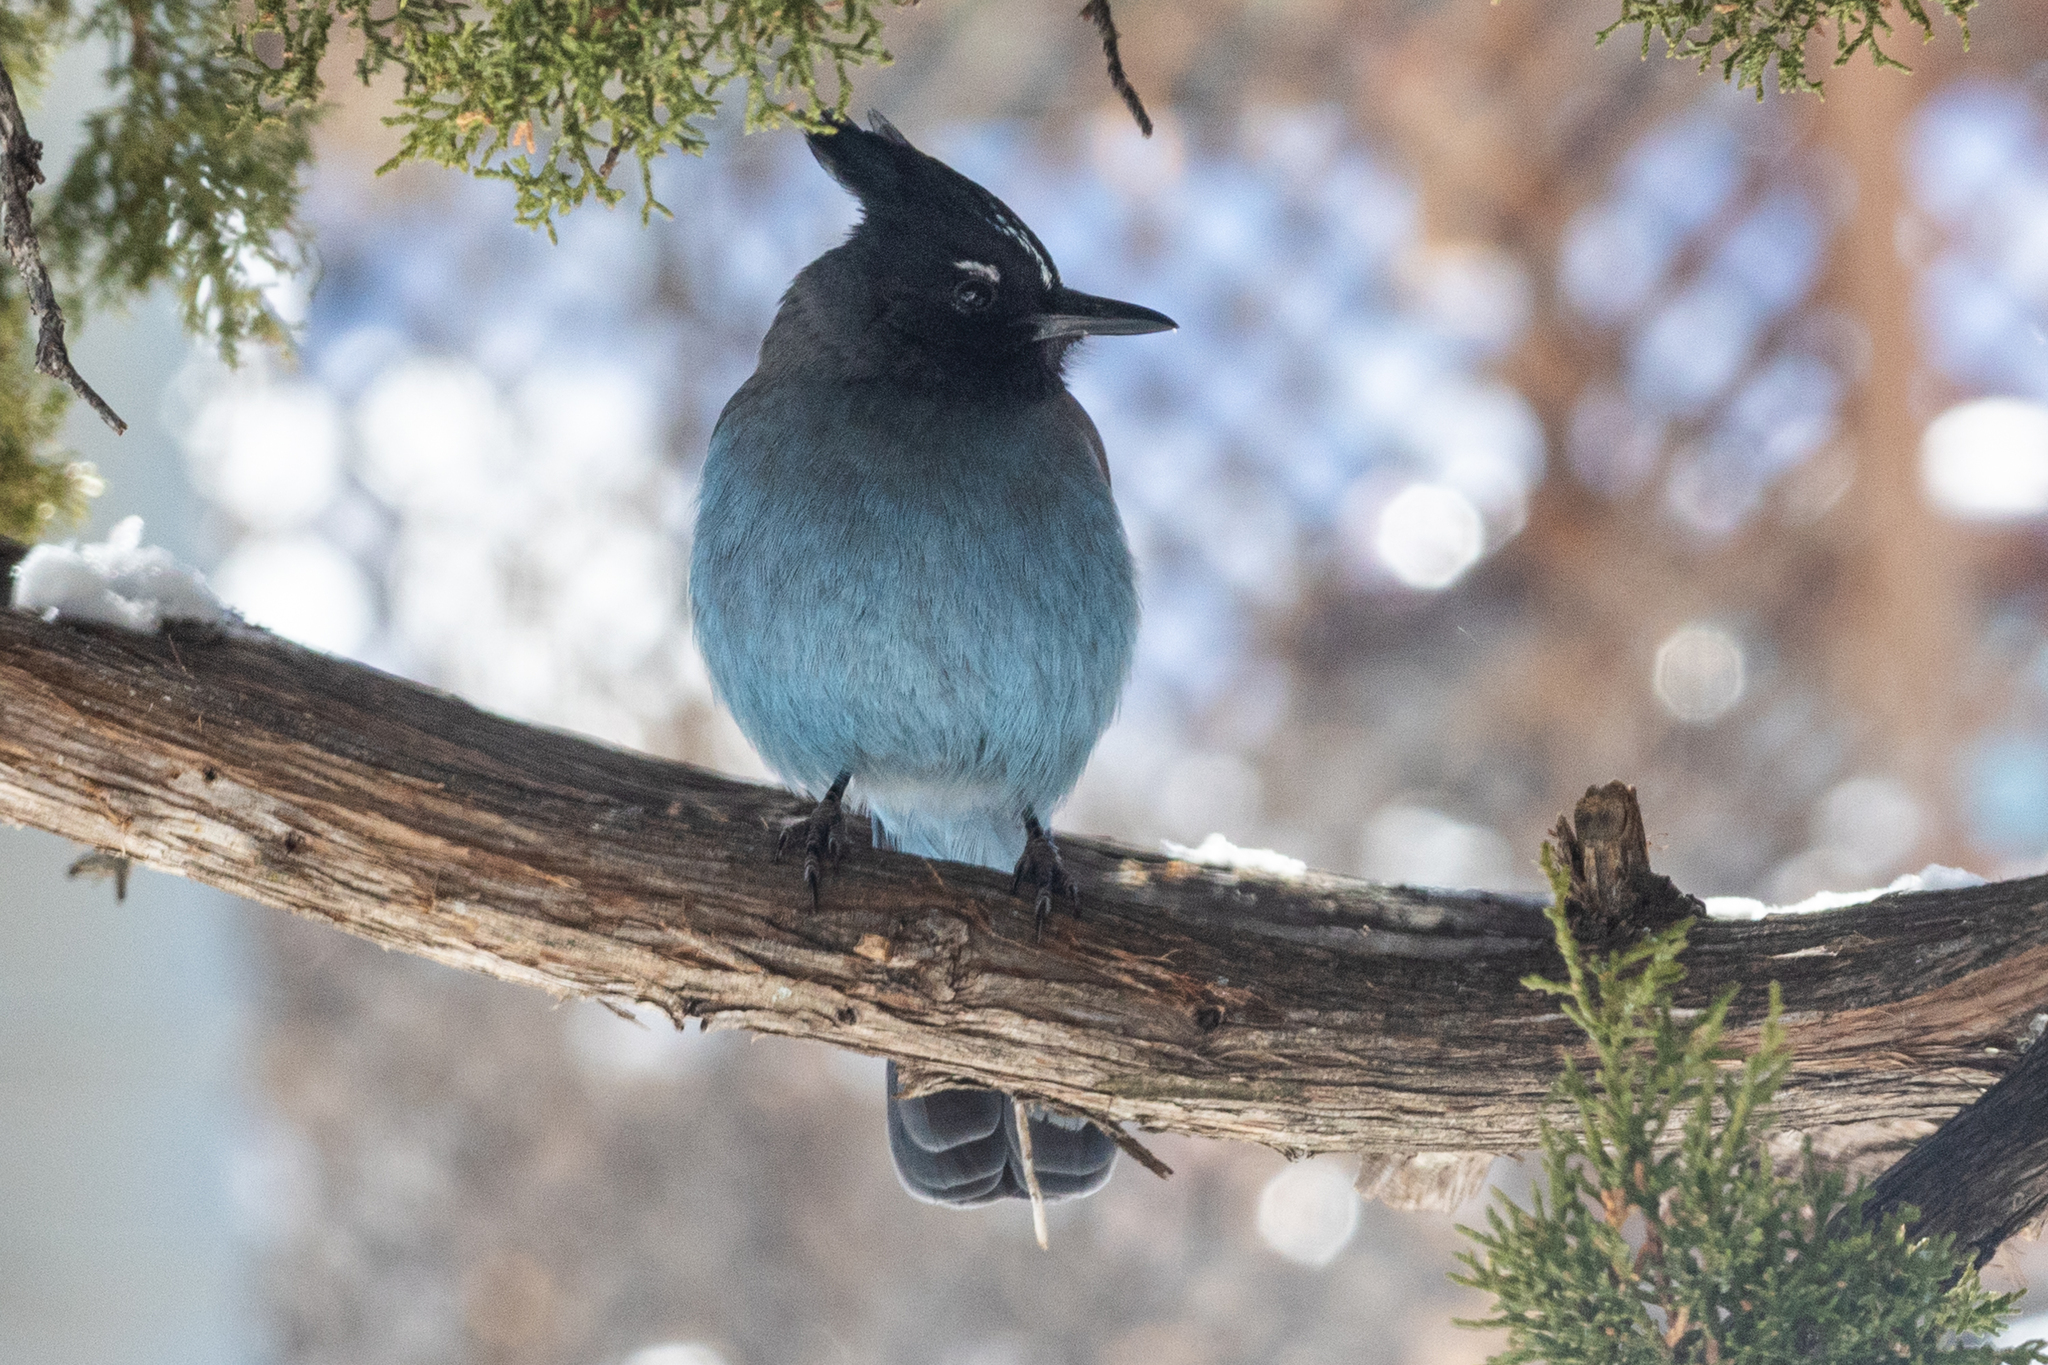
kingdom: Animalia
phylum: Chordata
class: Aves
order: Passeriformes
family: Corvidae
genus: Cyanocitta
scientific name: Cyanocitta stelleri
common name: Steller's jay
